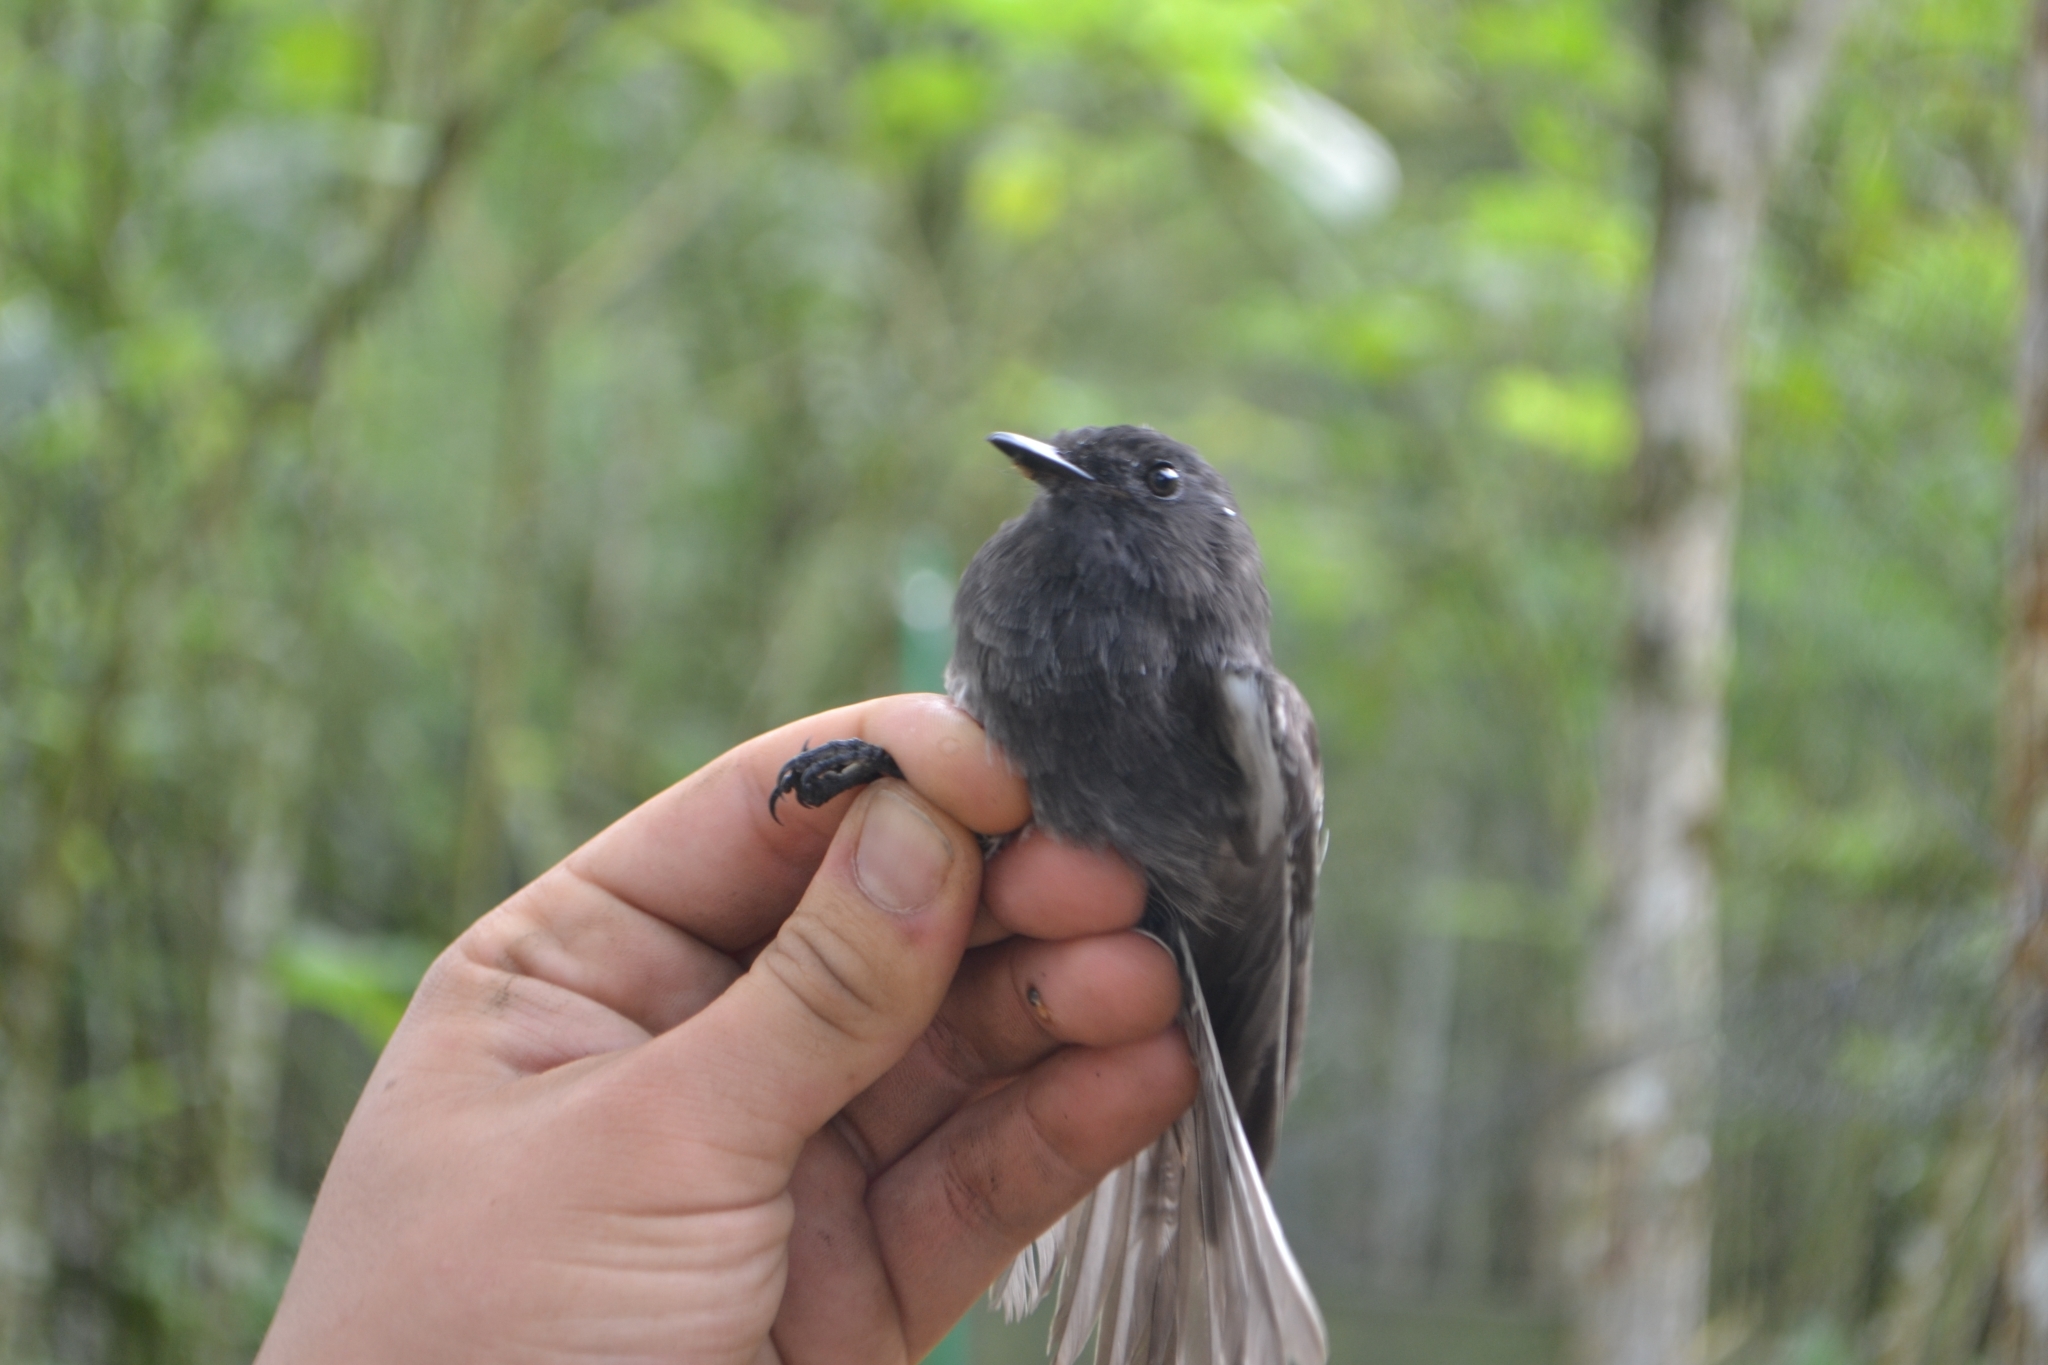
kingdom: Animalia
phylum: Chordata
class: Aves
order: Passeriformes
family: Tyrannidae
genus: Sayornis
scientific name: Sayornis nigricans
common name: Black phoebe
